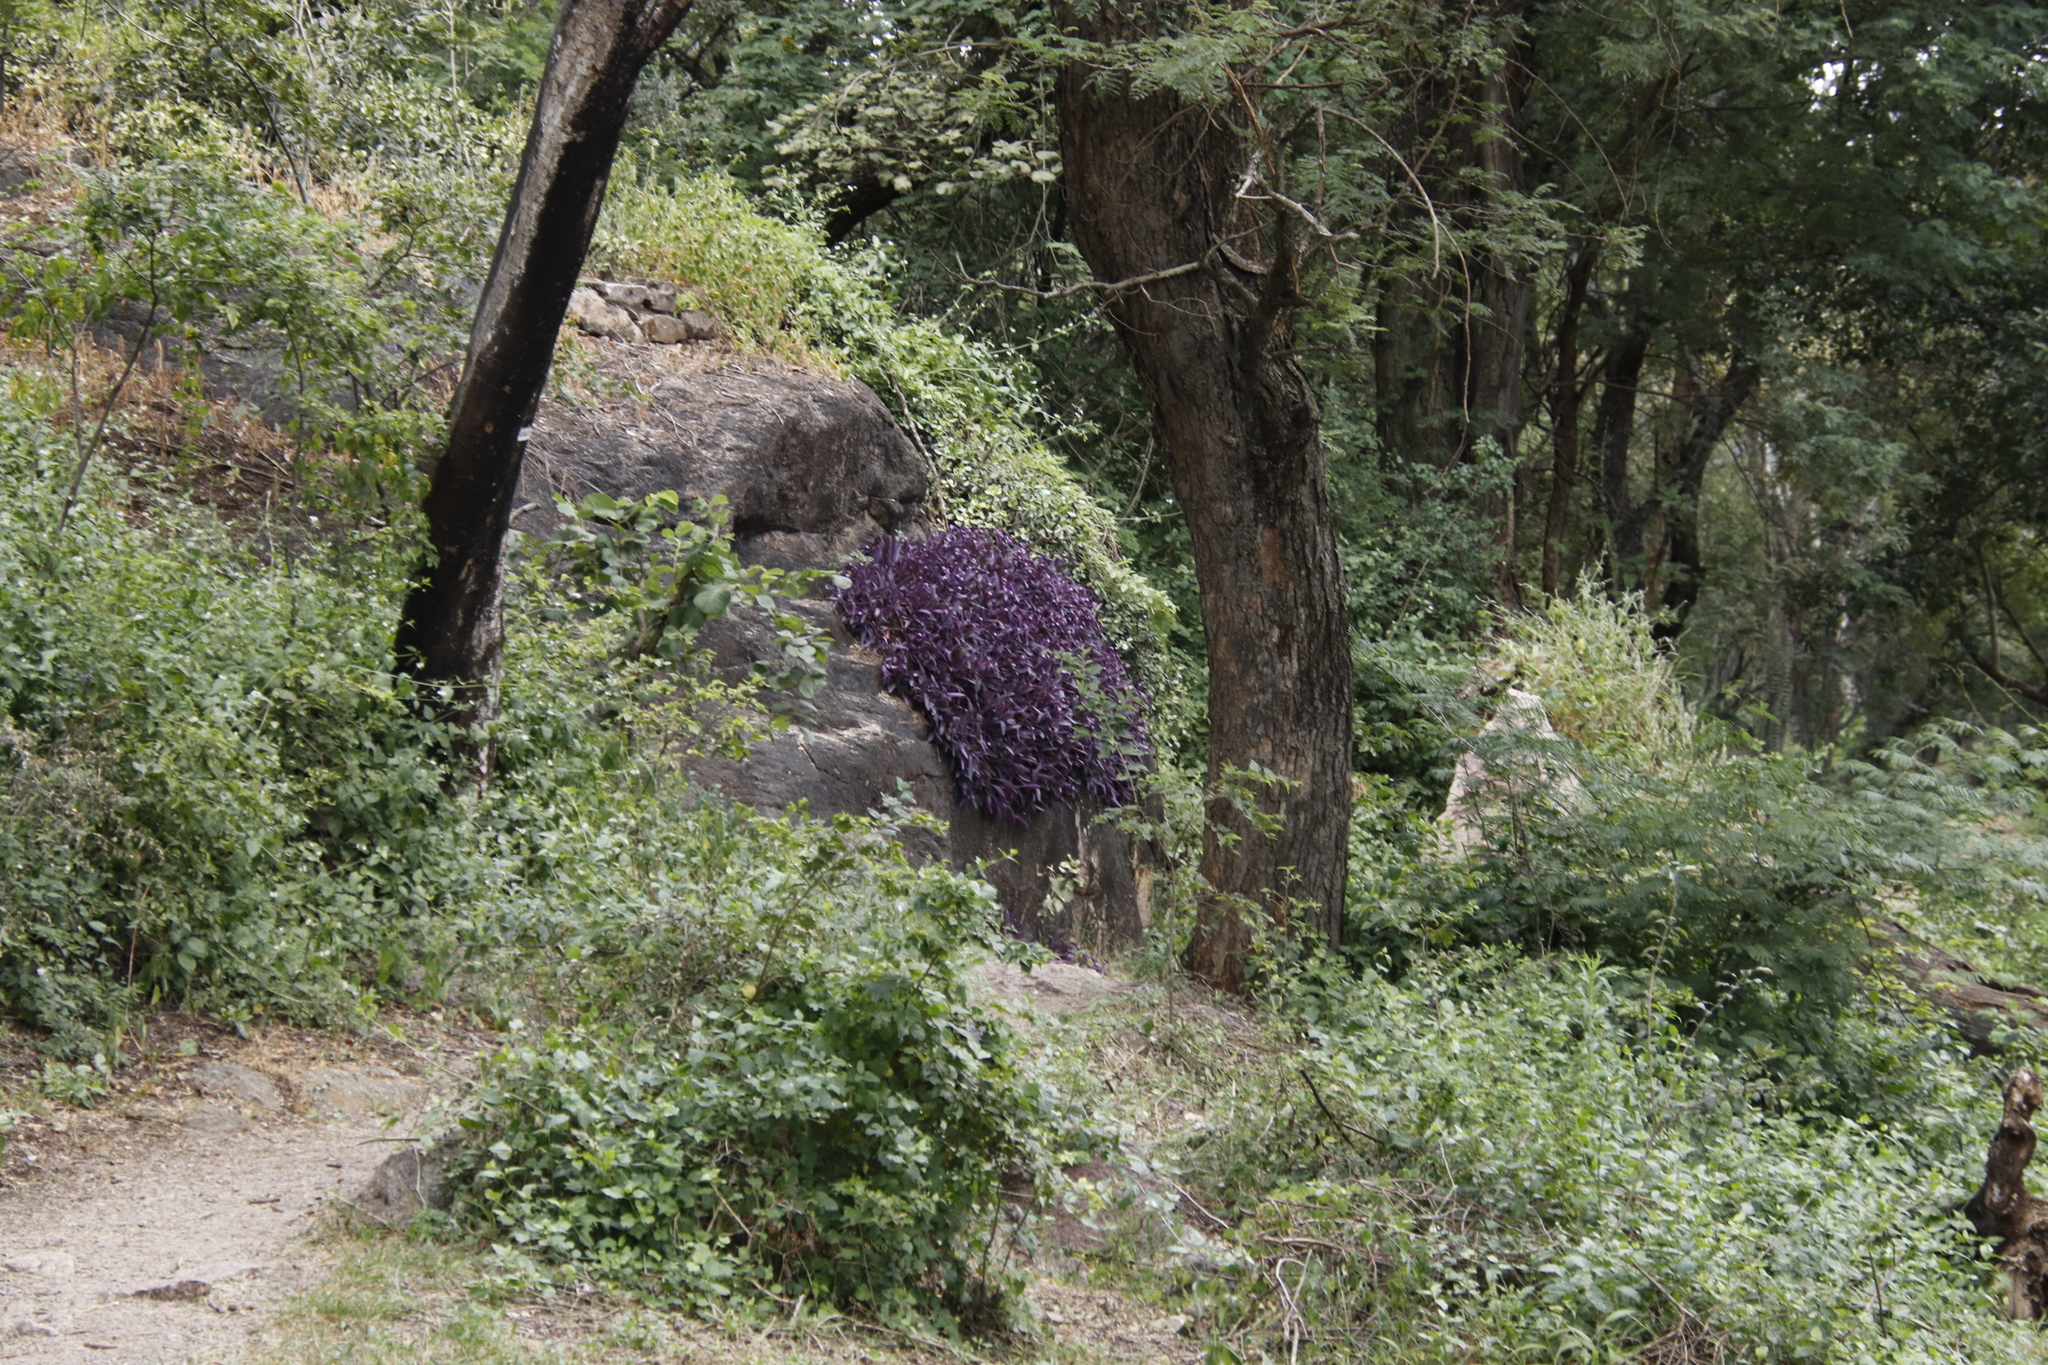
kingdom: Plantae
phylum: Tracheophyta
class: Liliopsida
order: Commelinales
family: Commelinaceae
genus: Tradescantia
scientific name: Tradescantia pallida
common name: Purpleheart
